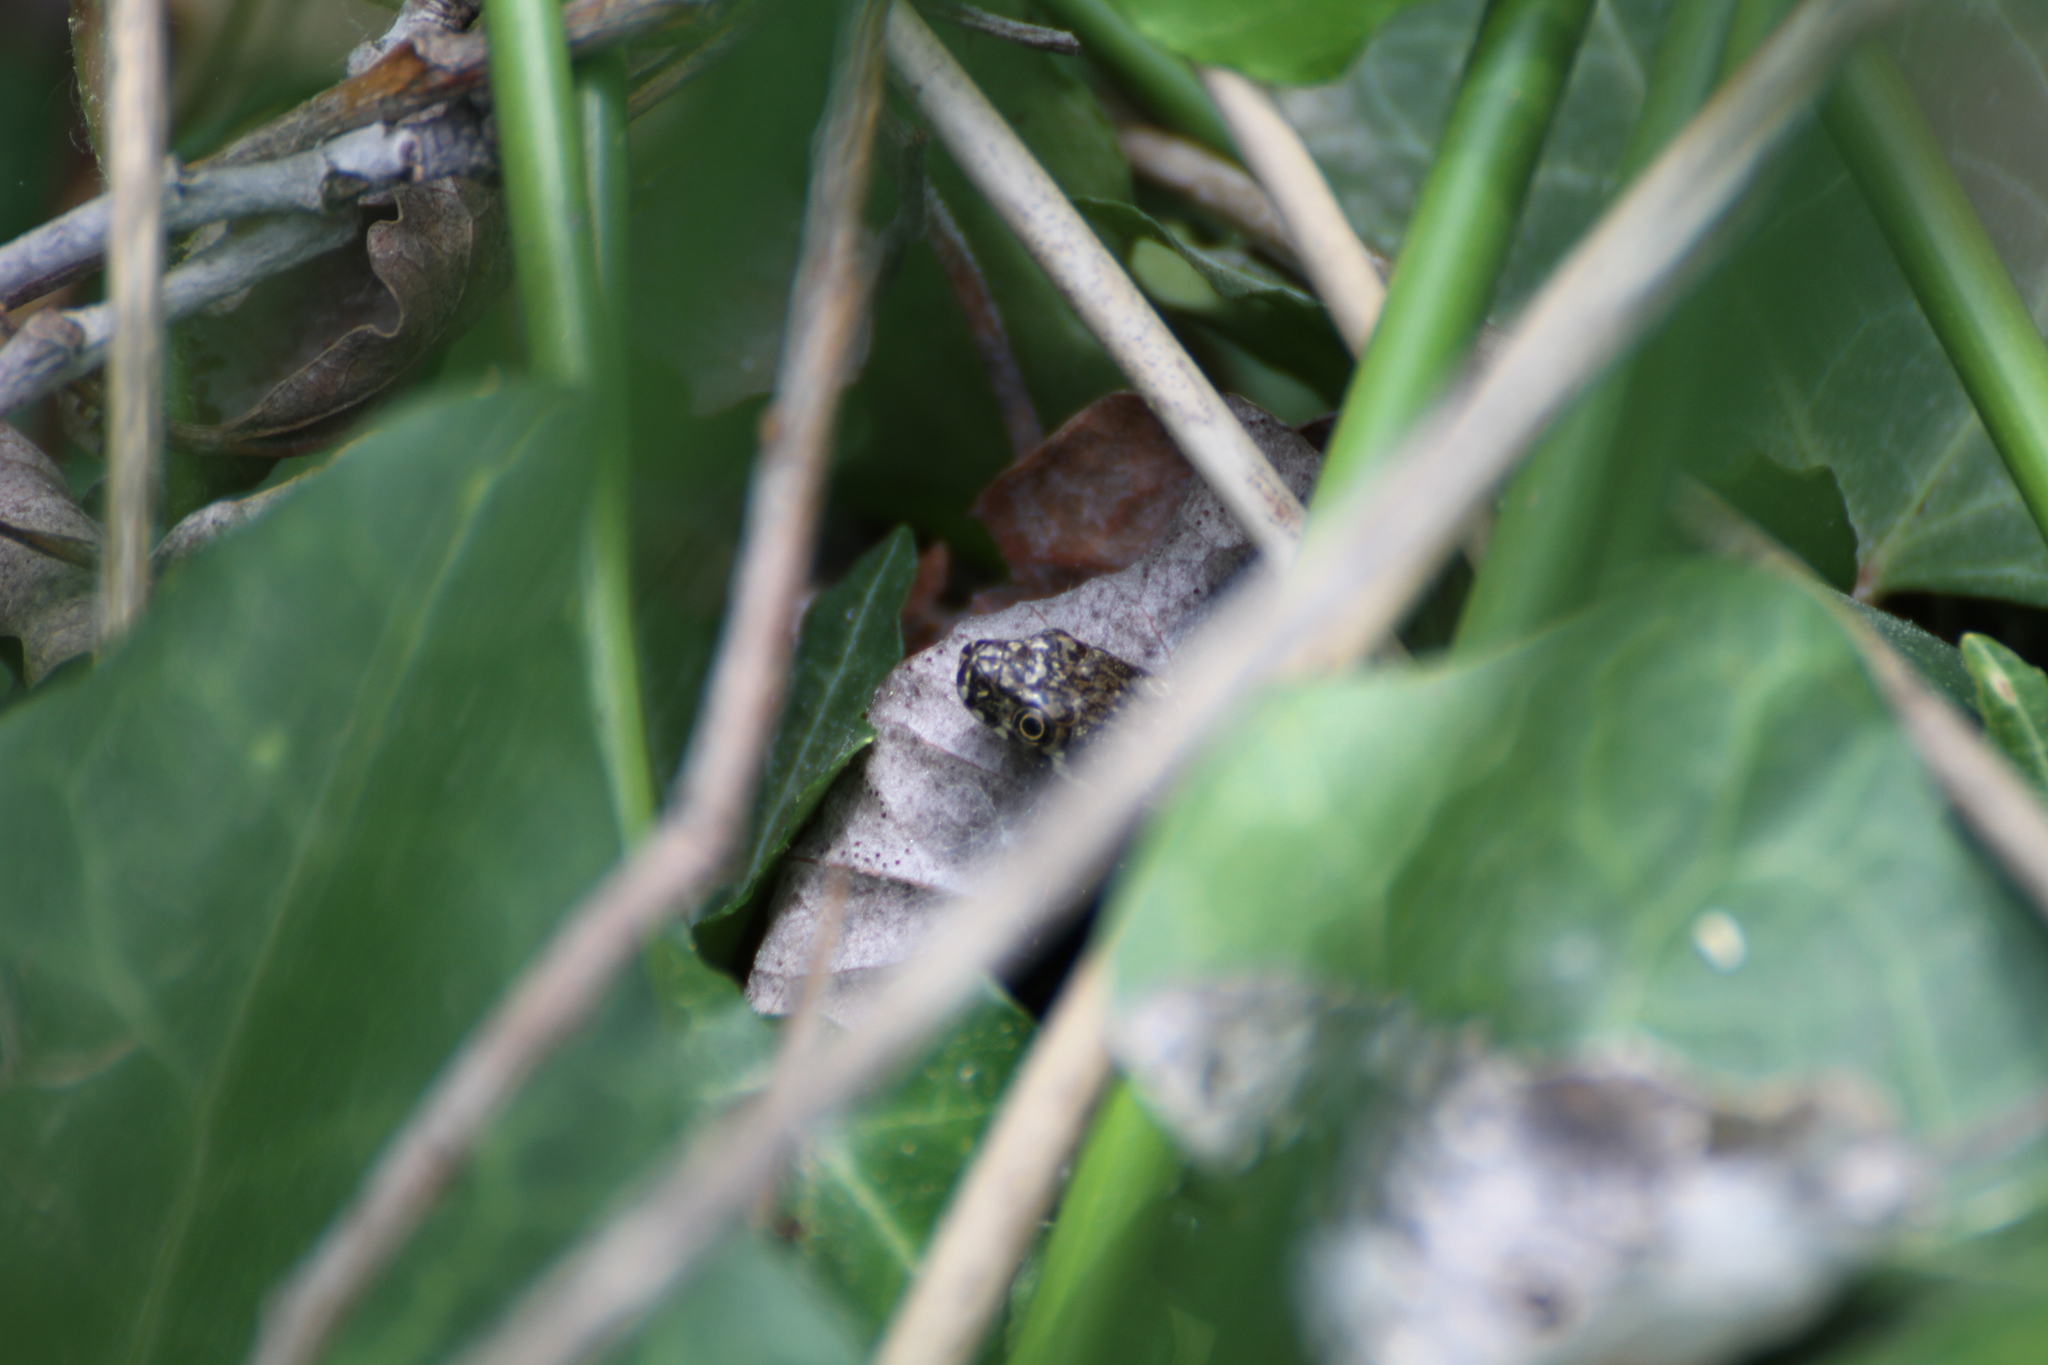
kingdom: Animalia
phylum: Chordata
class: Squamata
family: Colubridae
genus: Natrix
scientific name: Natrix maura
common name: Viperine water snake
